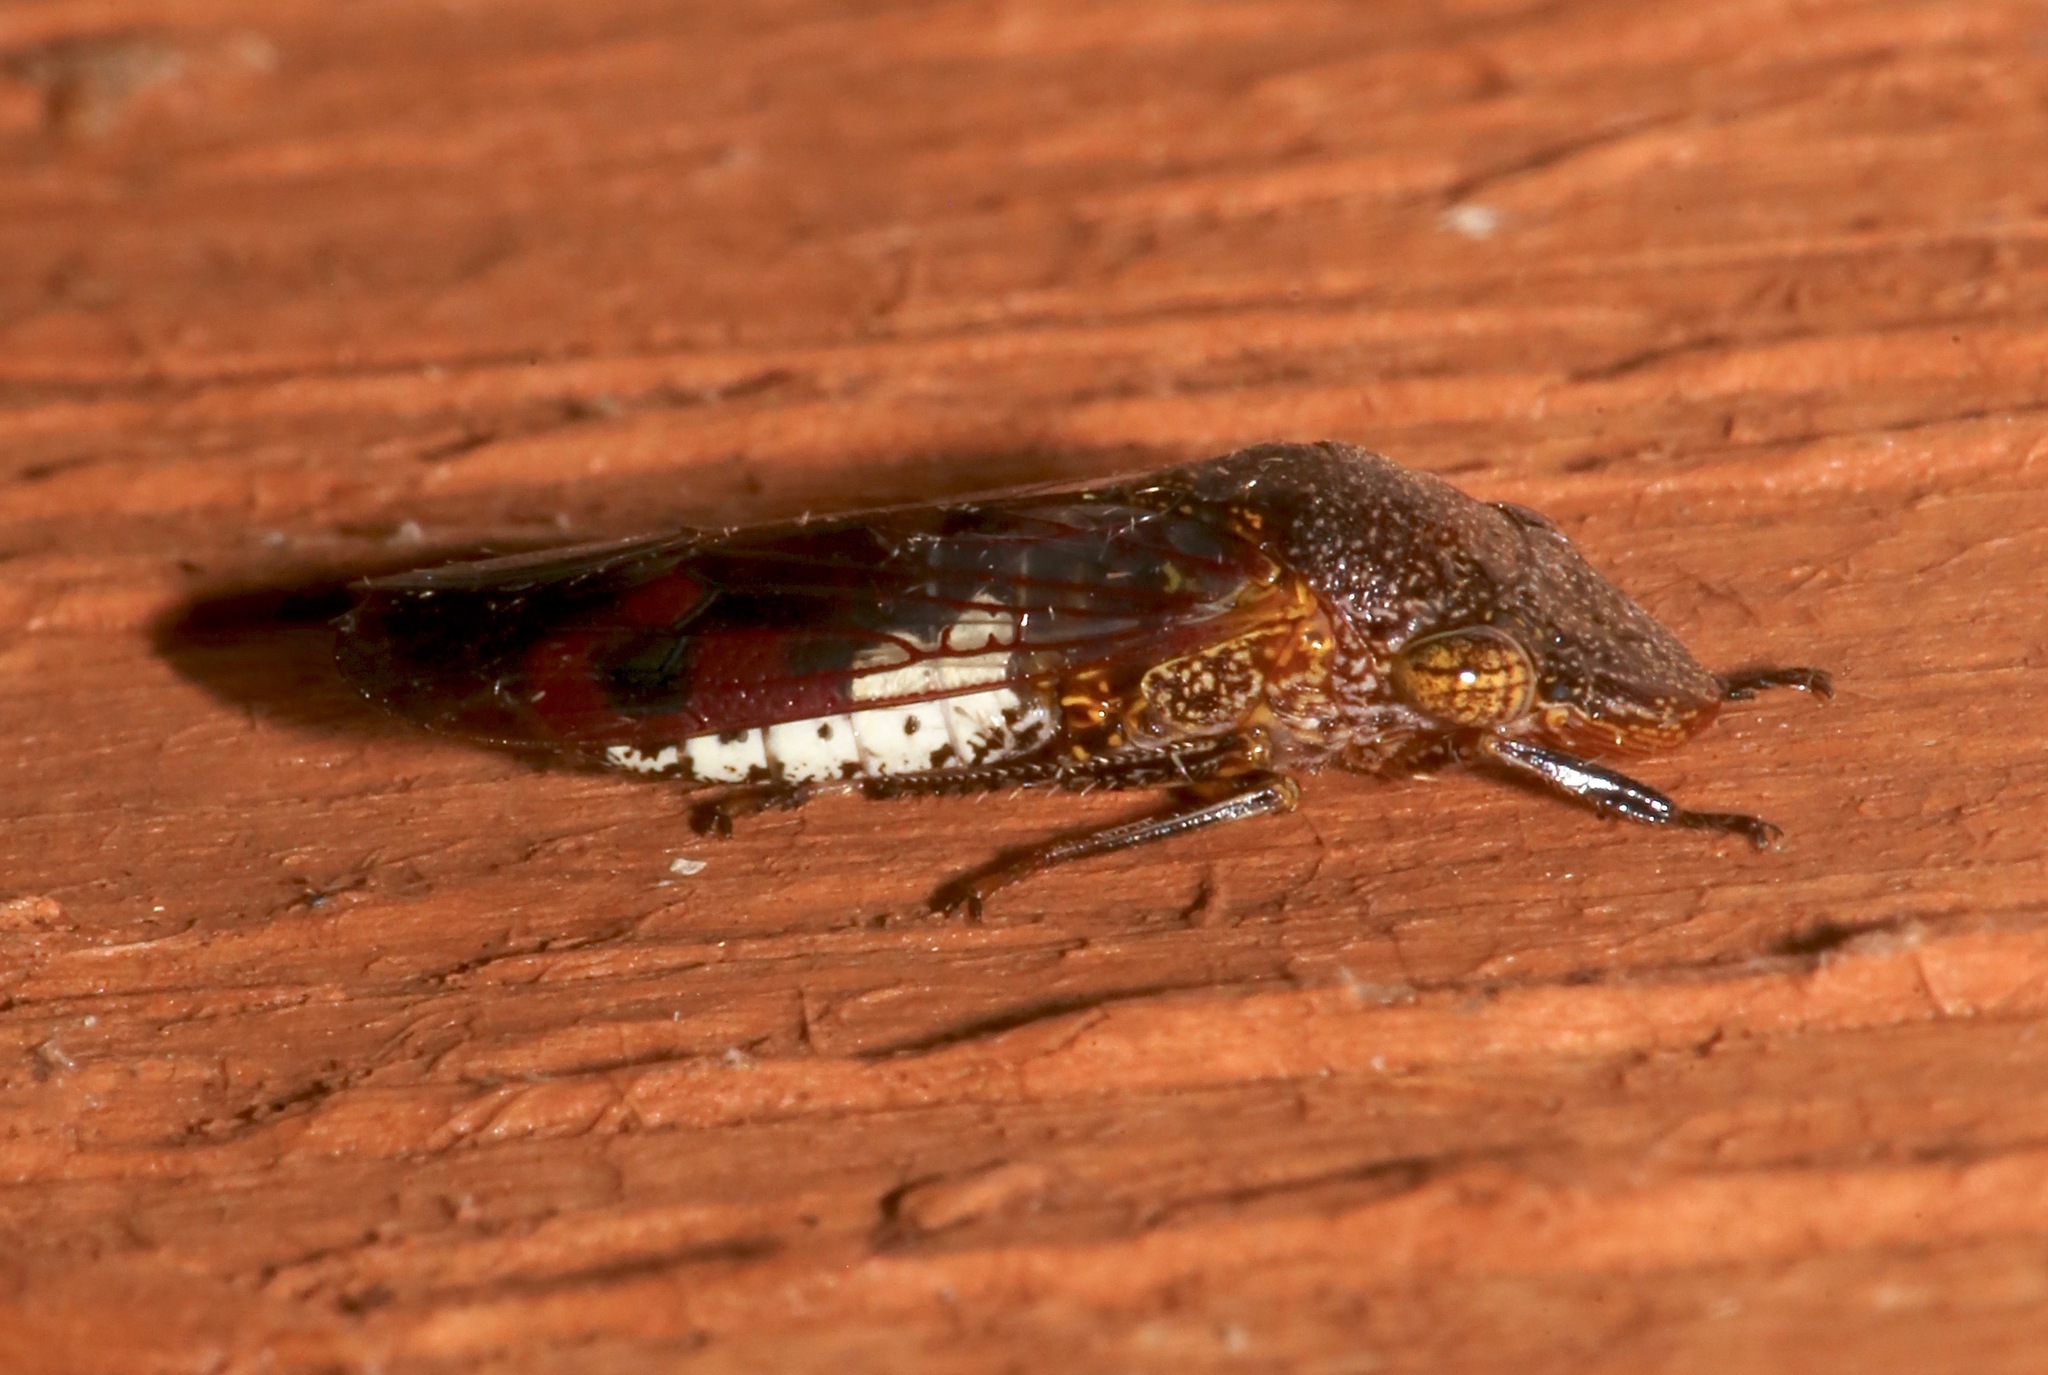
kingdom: Animalia
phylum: Arthropoda
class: Insecta
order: Hemiptera
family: Cicadellidae
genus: Homalodisca
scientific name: Homalodisca vitripennis
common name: Glassy-winged sharpshooter
